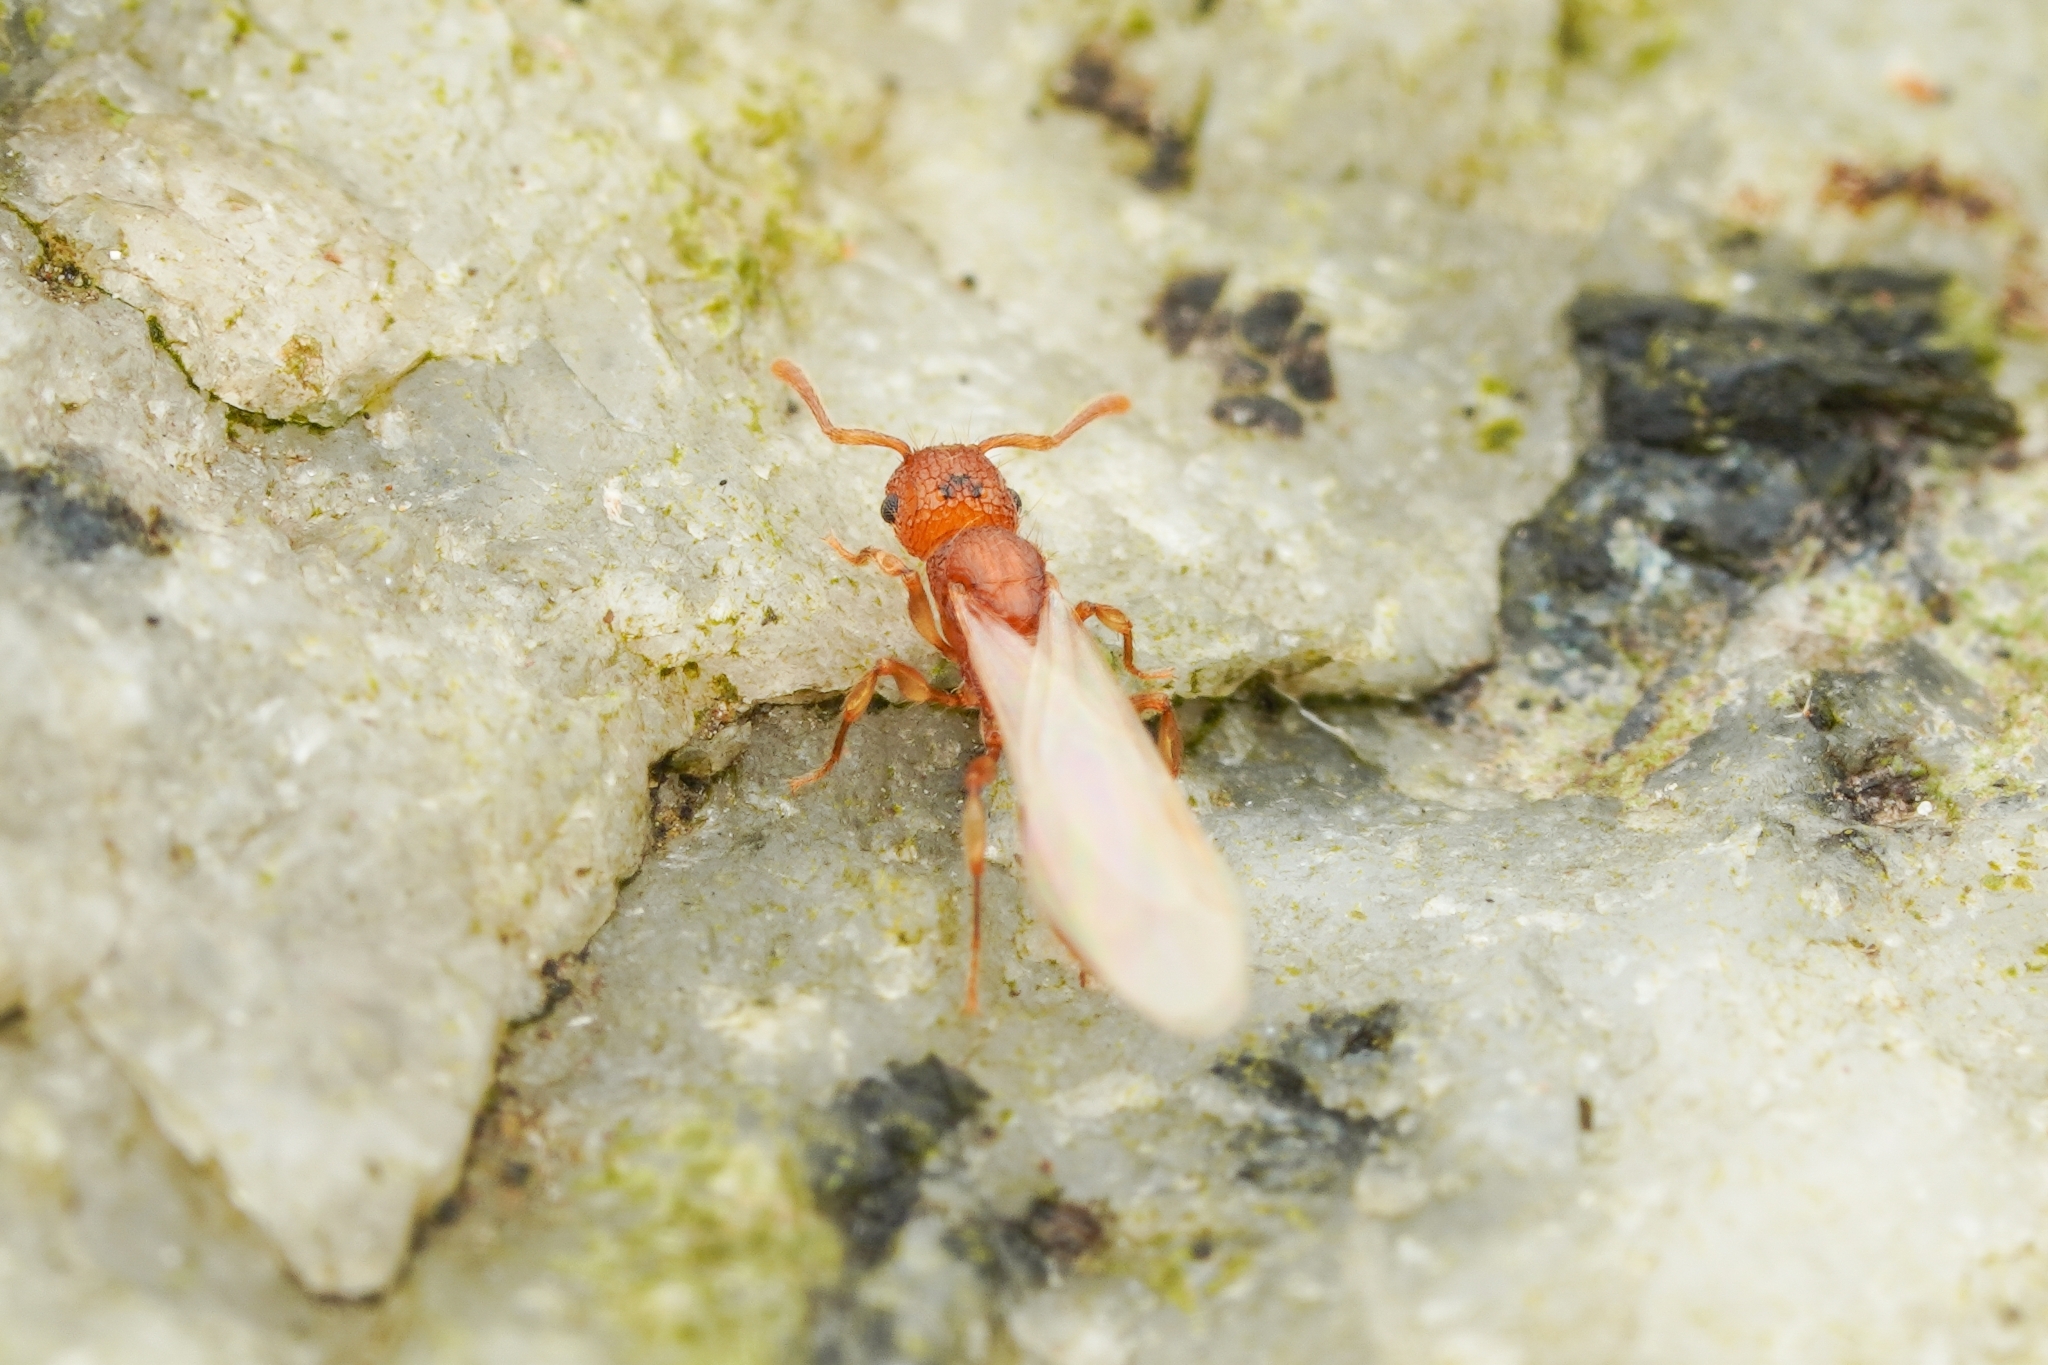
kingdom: Animalia
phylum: Arthropoda
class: Insecta
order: Hymenoptera
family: Formicidae
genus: Tetramorium
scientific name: Tetramorium nipponense
